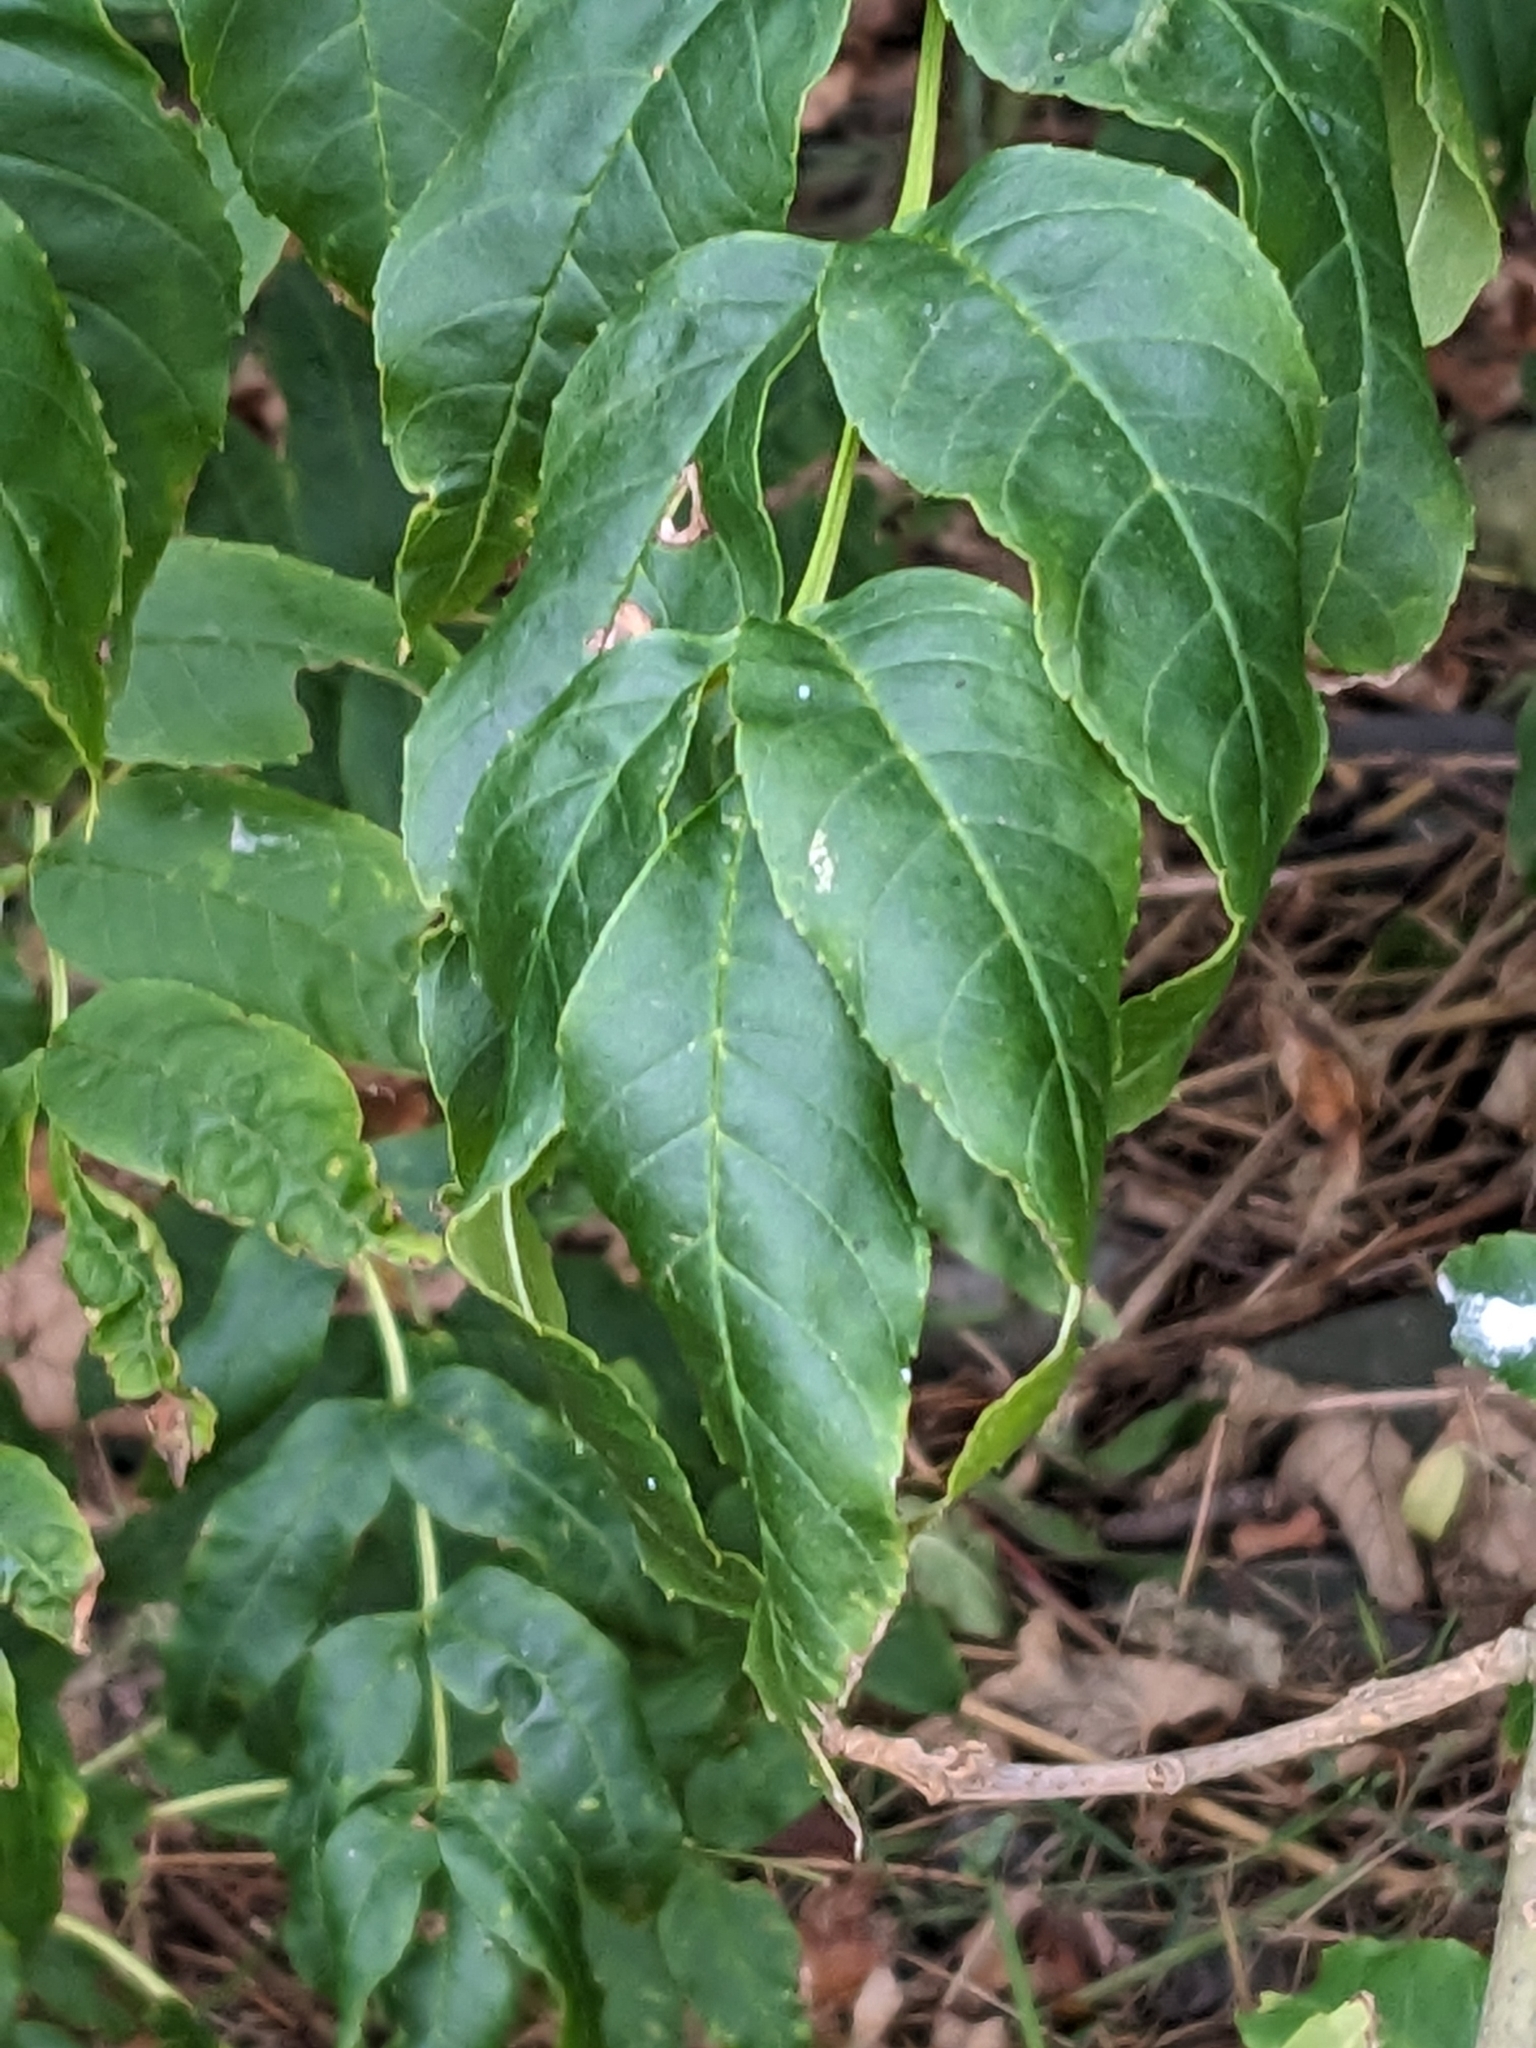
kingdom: Plantae
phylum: Tracheophyta
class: Magnoliopsida
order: Lamiales
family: Oleaceae
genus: Fraxinus
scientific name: Fraxinus excelsior
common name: European ash
